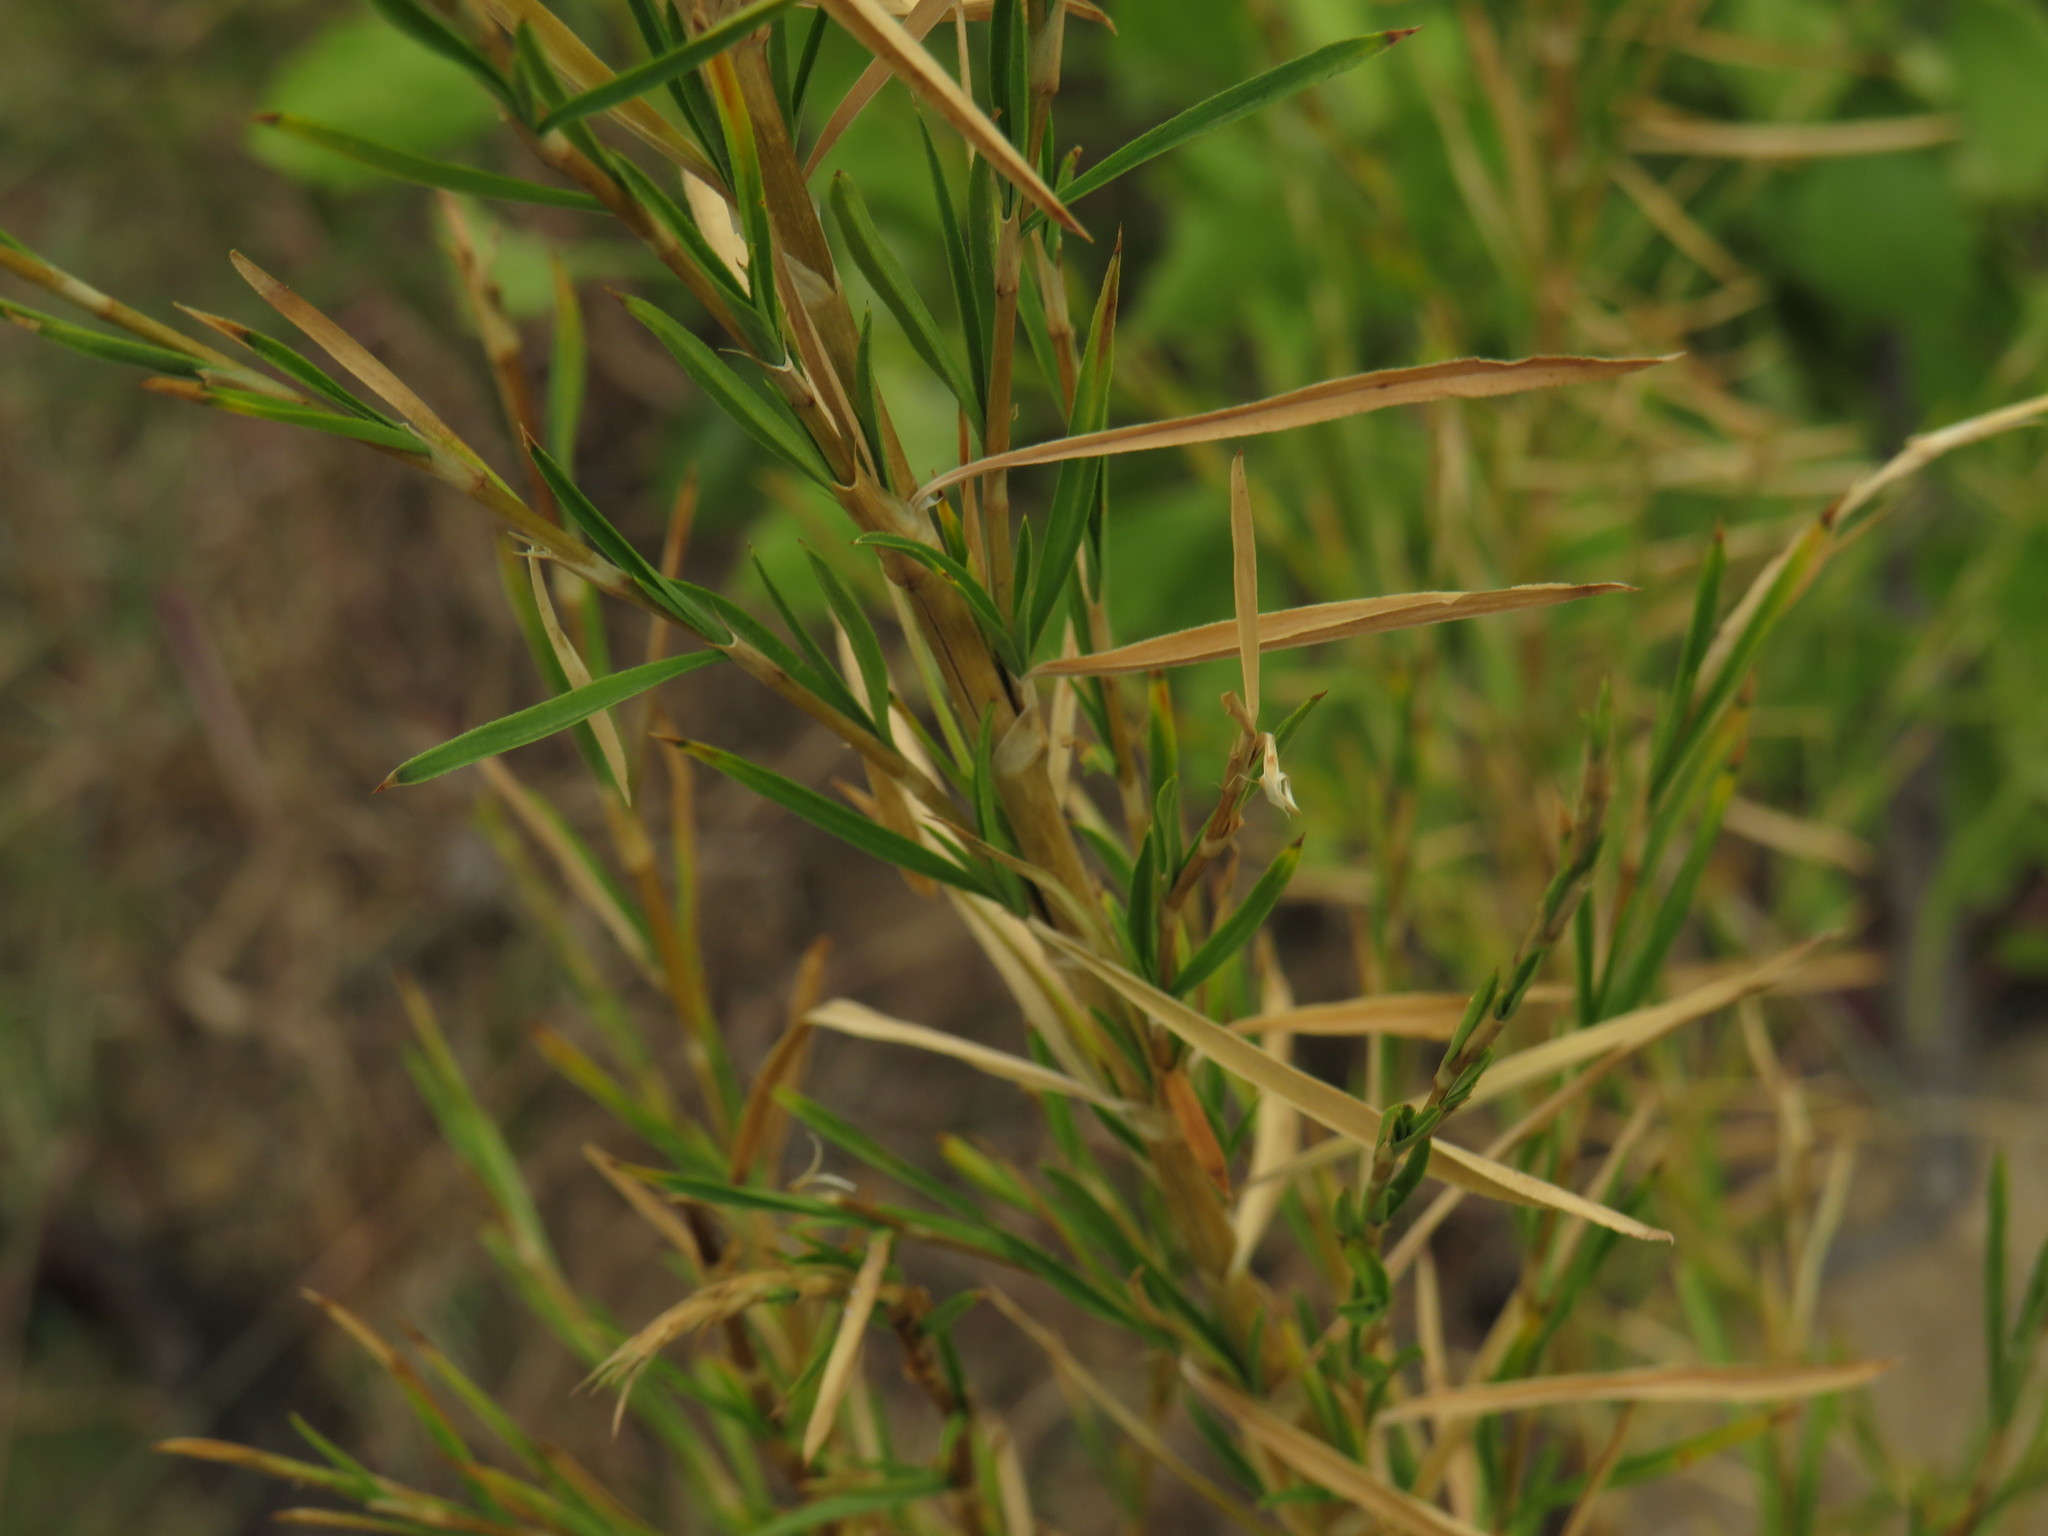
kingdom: Plantae
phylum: Tracheophyta
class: Magnoliopsida
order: Rosales
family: Rosaceae
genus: Cliffortia
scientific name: Cliffortia strobilifera
